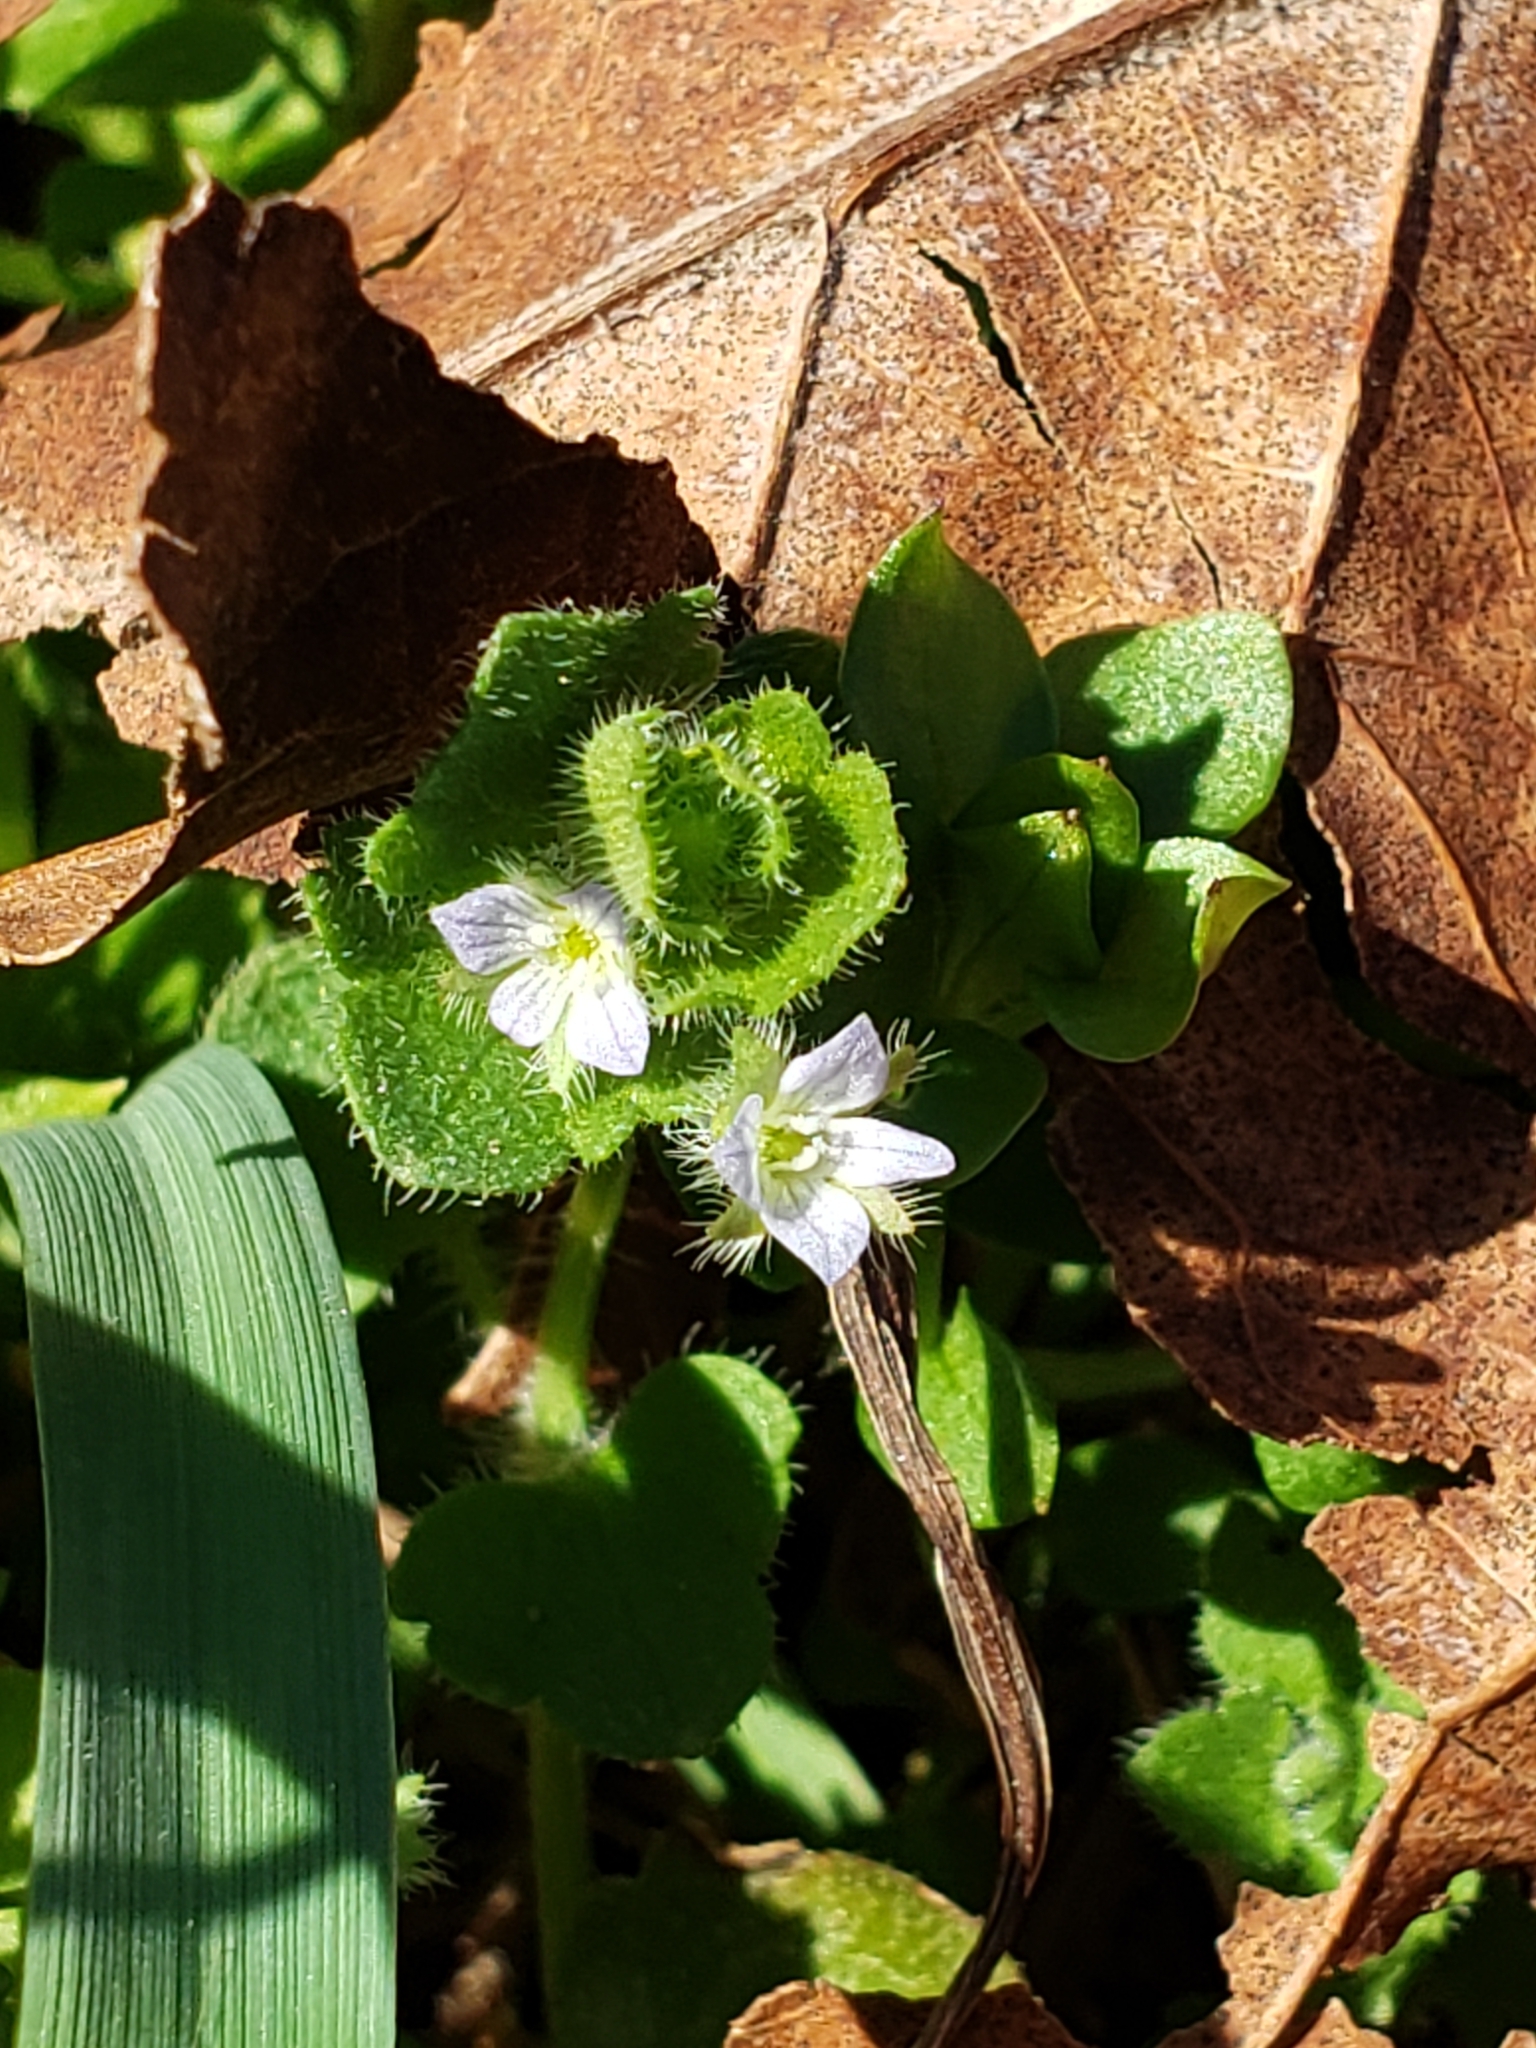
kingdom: Plantae
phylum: Tracheophyta
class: Magnoliopsida
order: Lamiales
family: Plantaginaceae
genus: Veronica
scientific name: Veronica hederifolia
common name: Ivy-leaved speedwell
